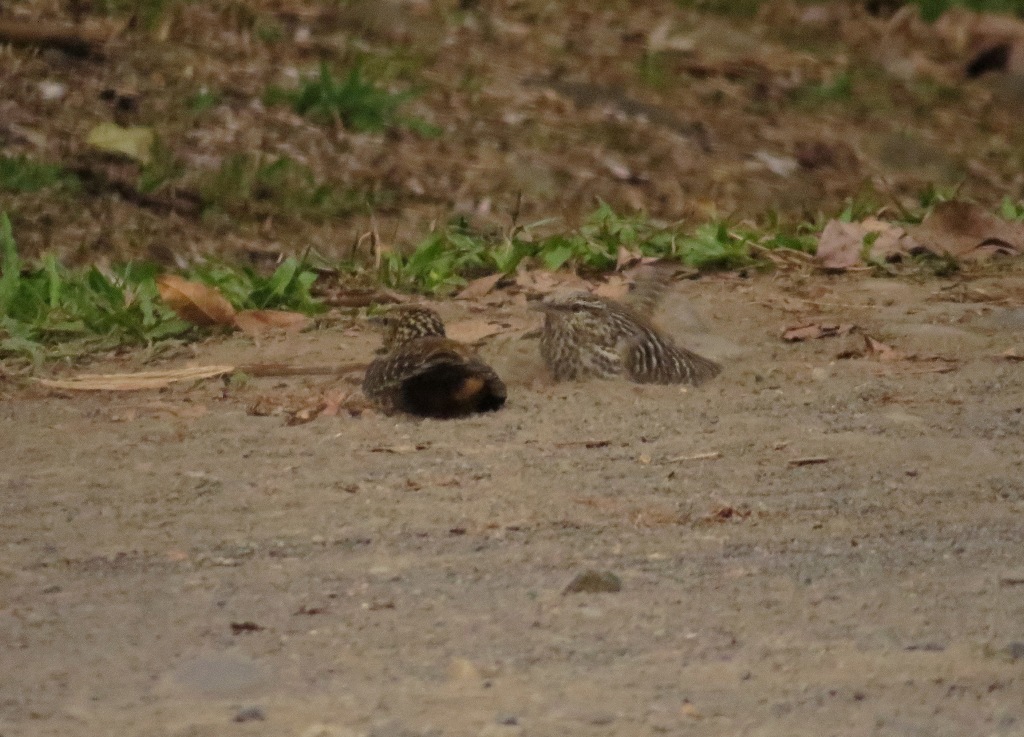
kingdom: Animalia
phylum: Chordata
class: Aves
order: Passeriformes
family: Troglodytidae
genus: Campylorhynchus
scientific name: Campylorhynchus zonatus
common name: Band-backed wren
